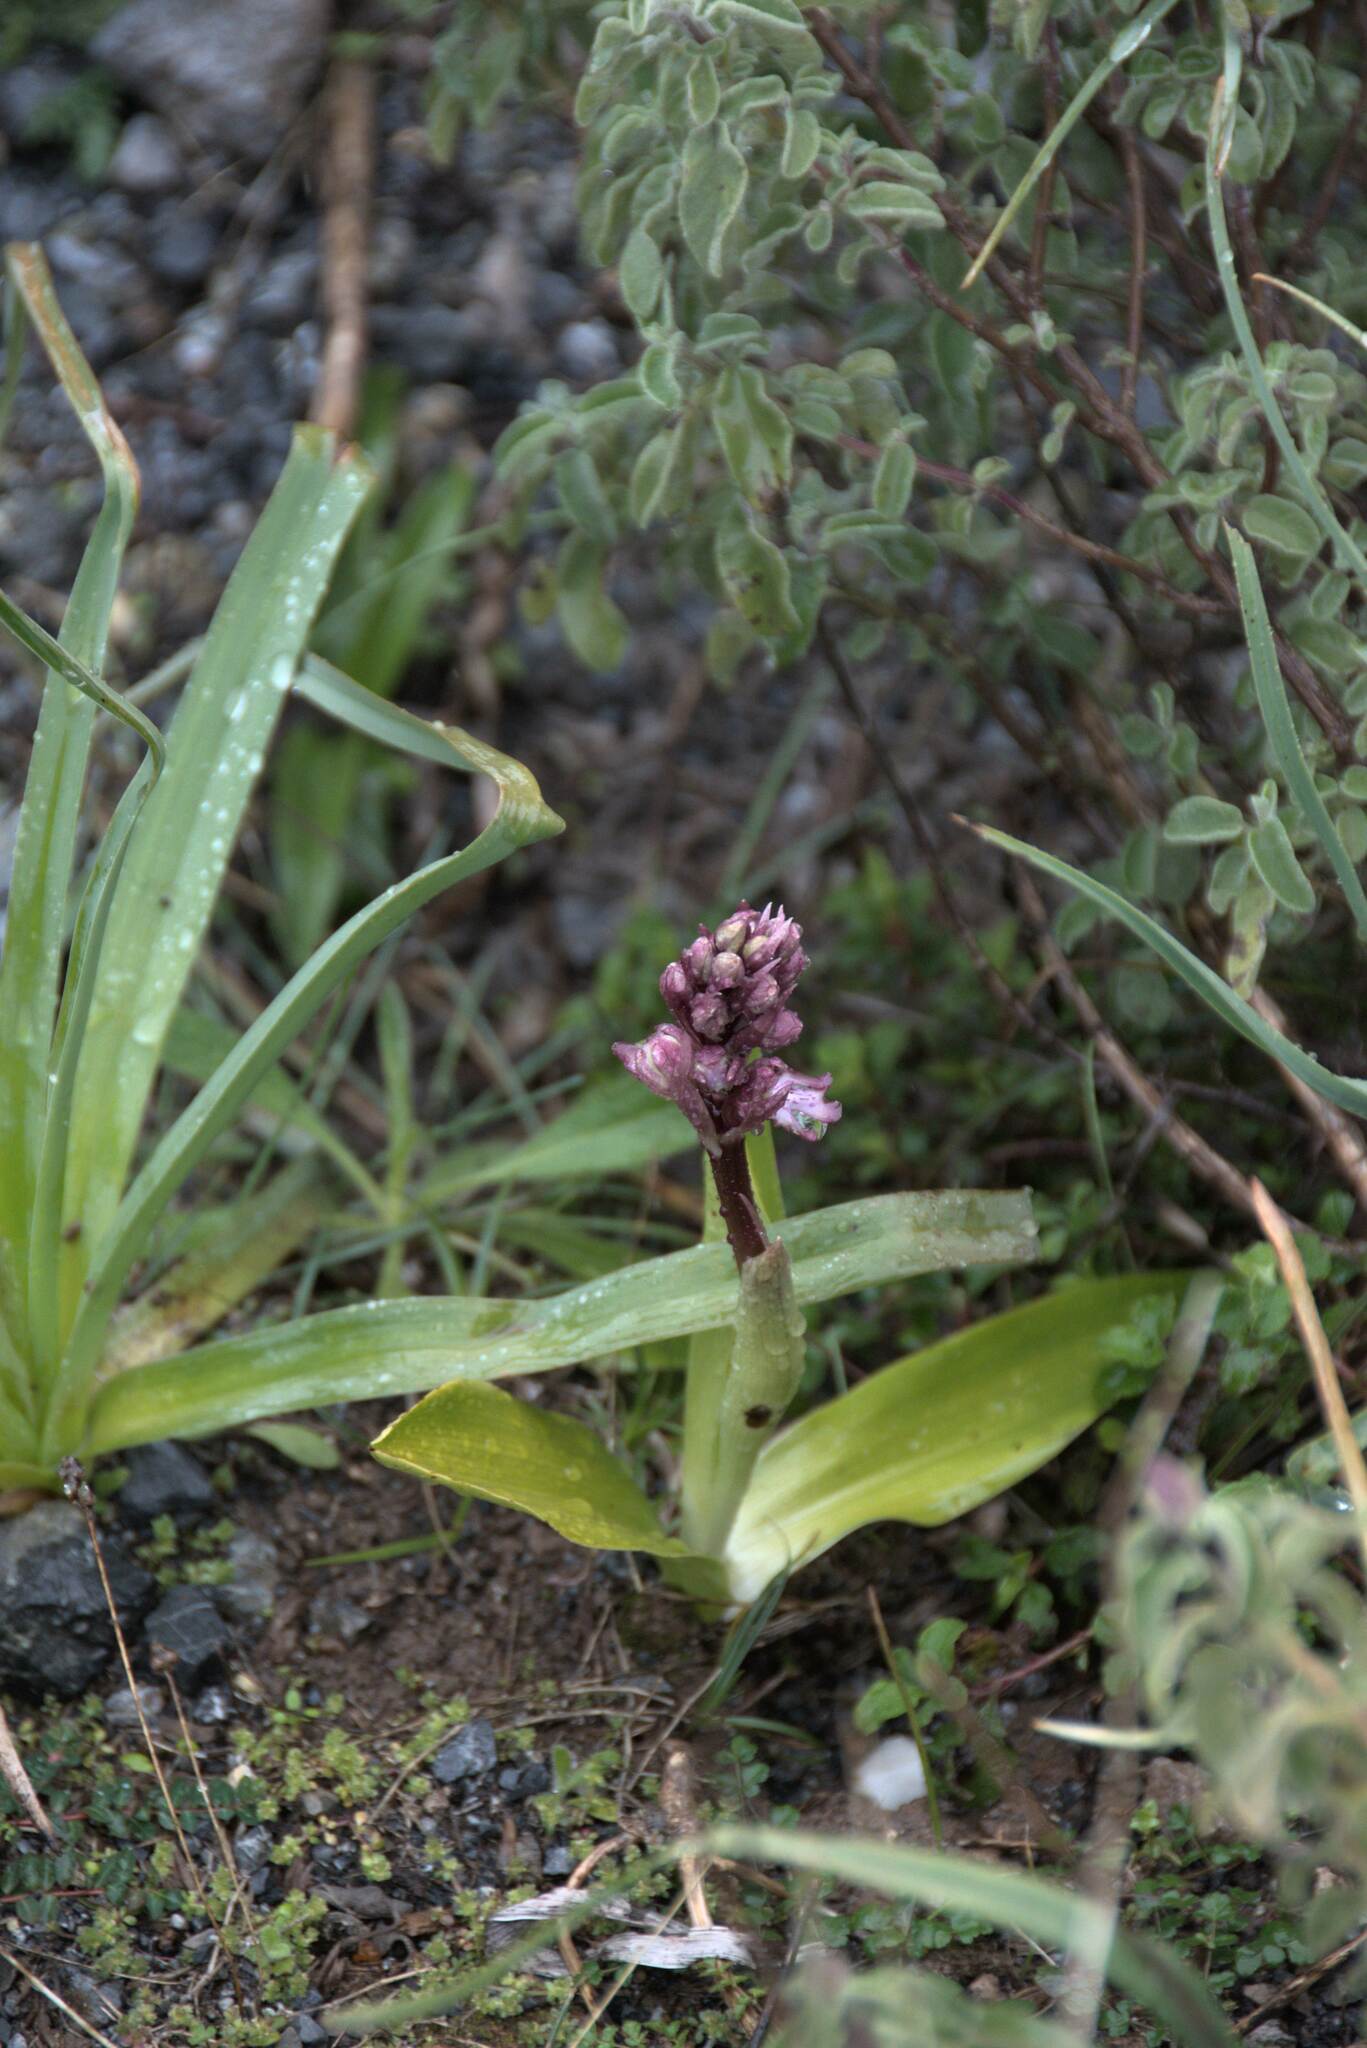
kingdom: Plantae
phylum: Tracheophyta
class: Liliopsida
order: Asparagales
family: Orchidaceae
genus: Himantoglossum
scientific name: Himantoglossum robertianum
